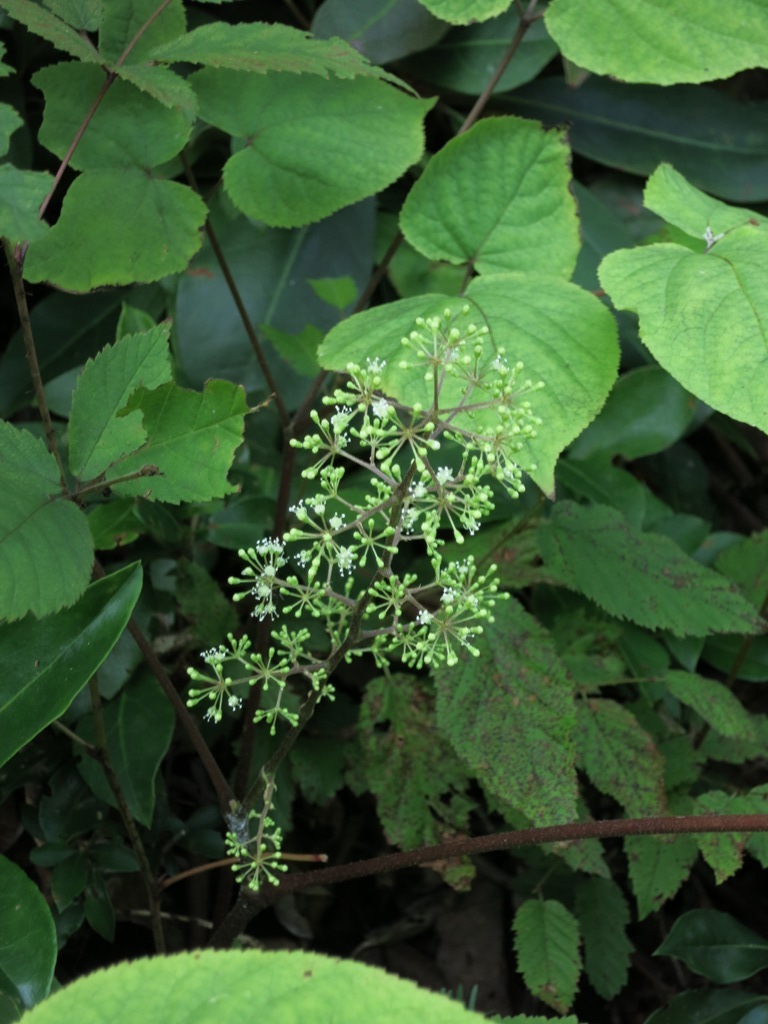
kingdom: Plantae
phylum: Tracheophyta
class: Magnoliopsida
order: Apiales
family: Araliaceae
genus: Aralia
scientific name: Aralia racemosa
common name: American-spikenard
